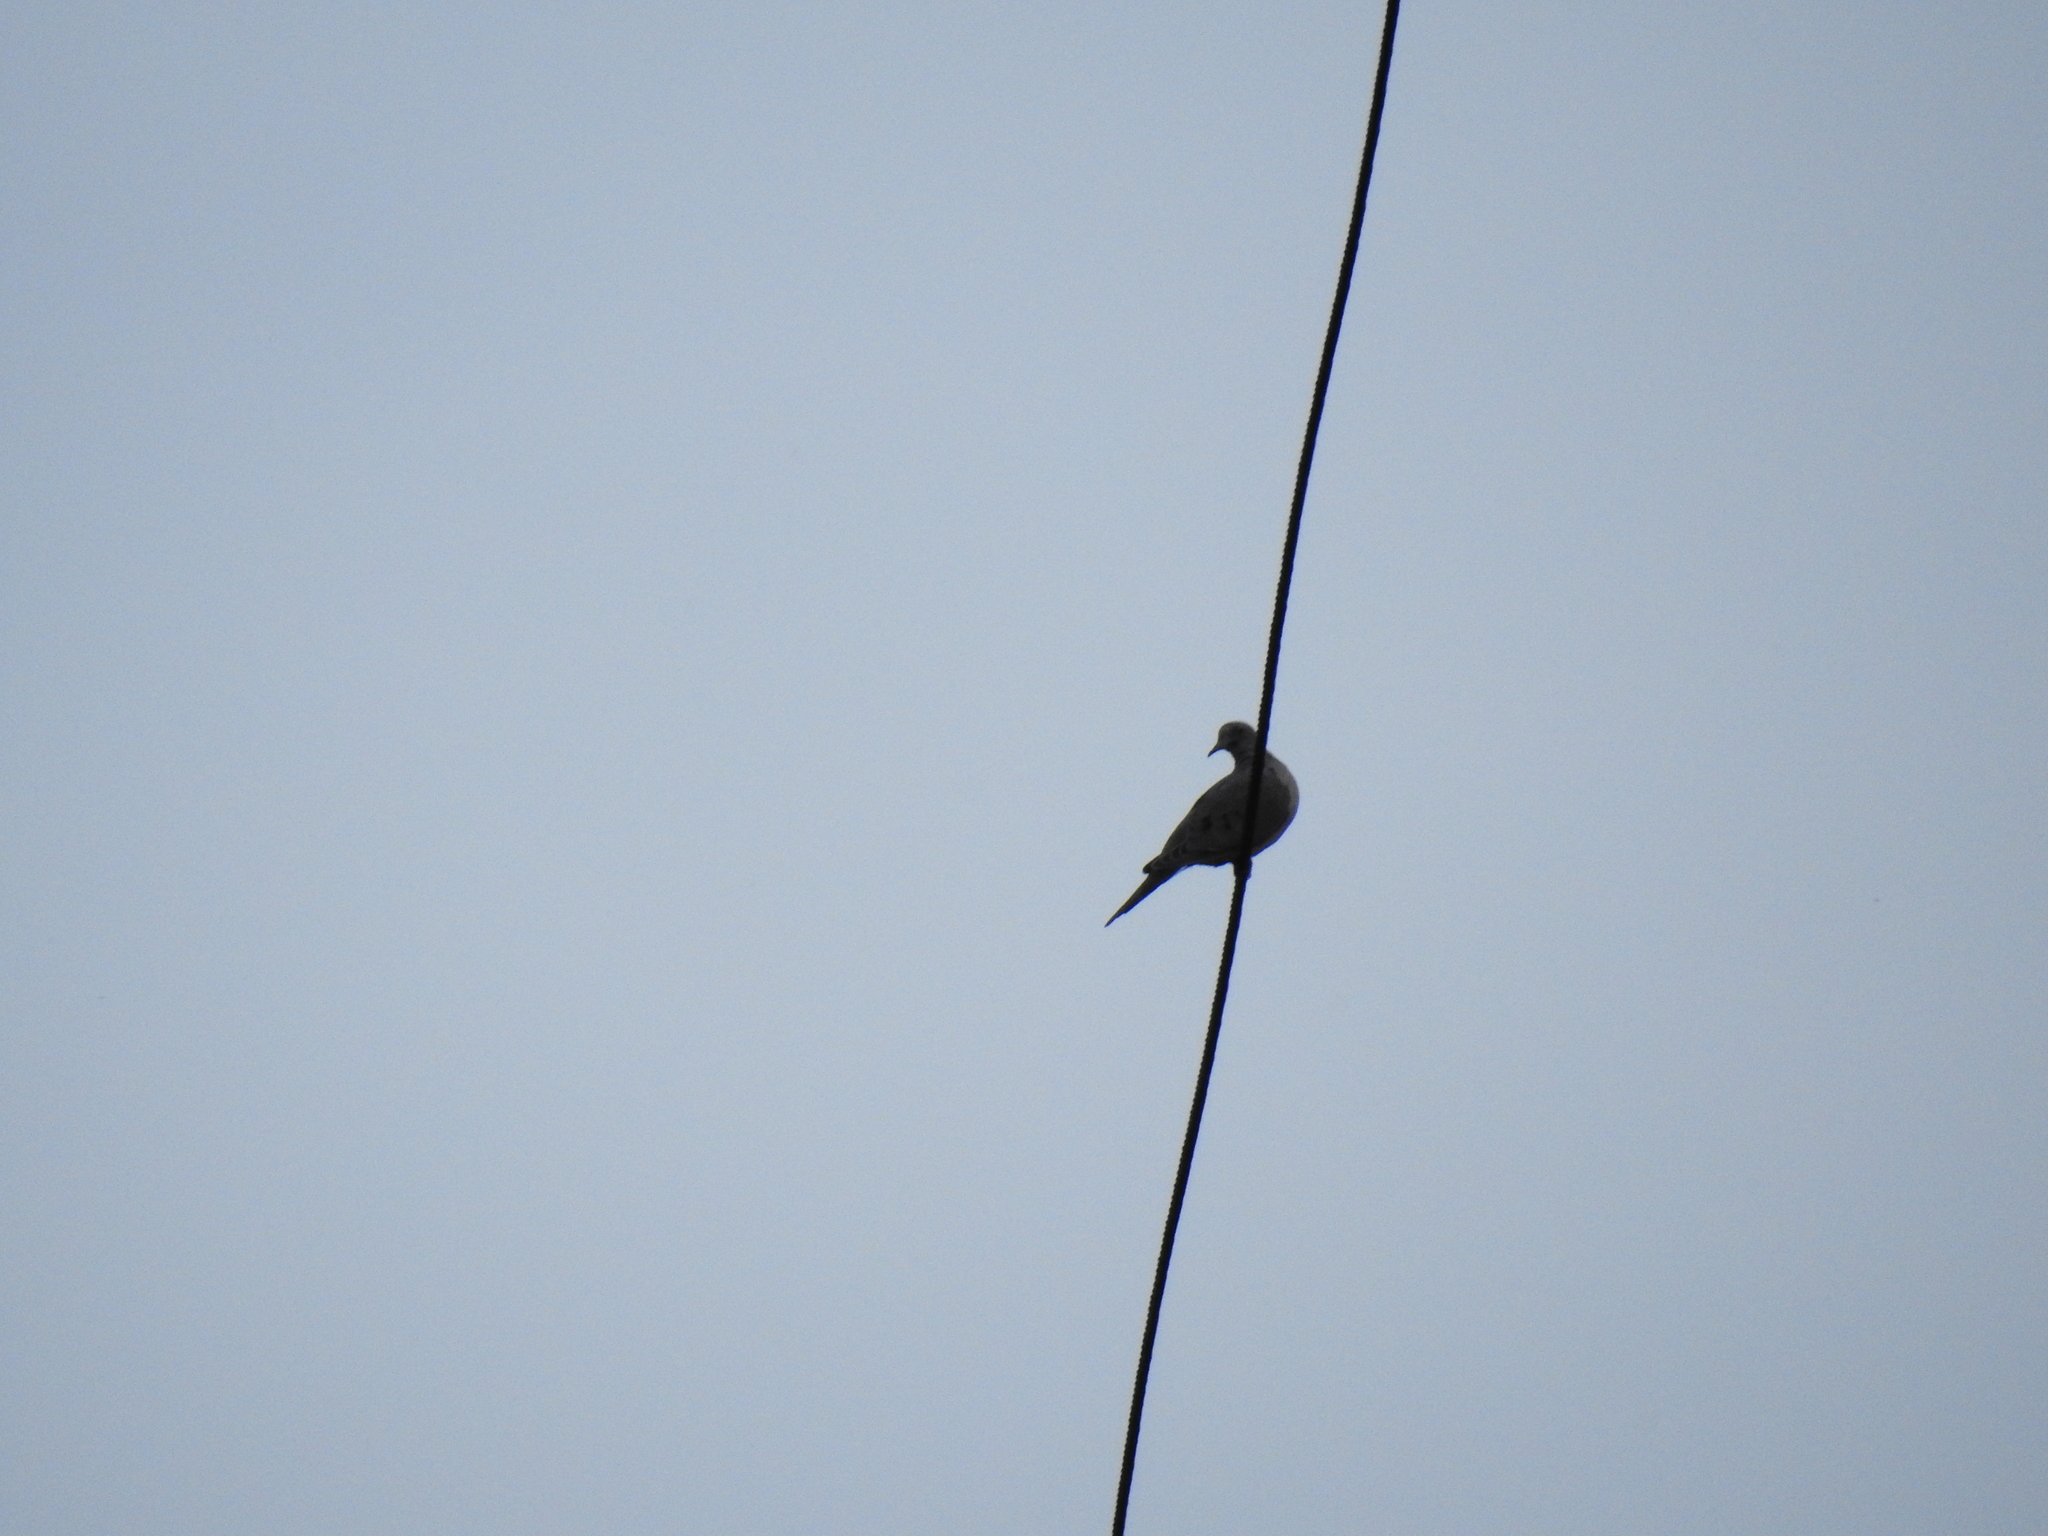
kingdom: Animalia
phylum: Chordata
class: Aves
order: Columbiformes
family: Columbidae
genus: Zenaida
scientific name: Zenaida macroura
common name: Mourning dove
